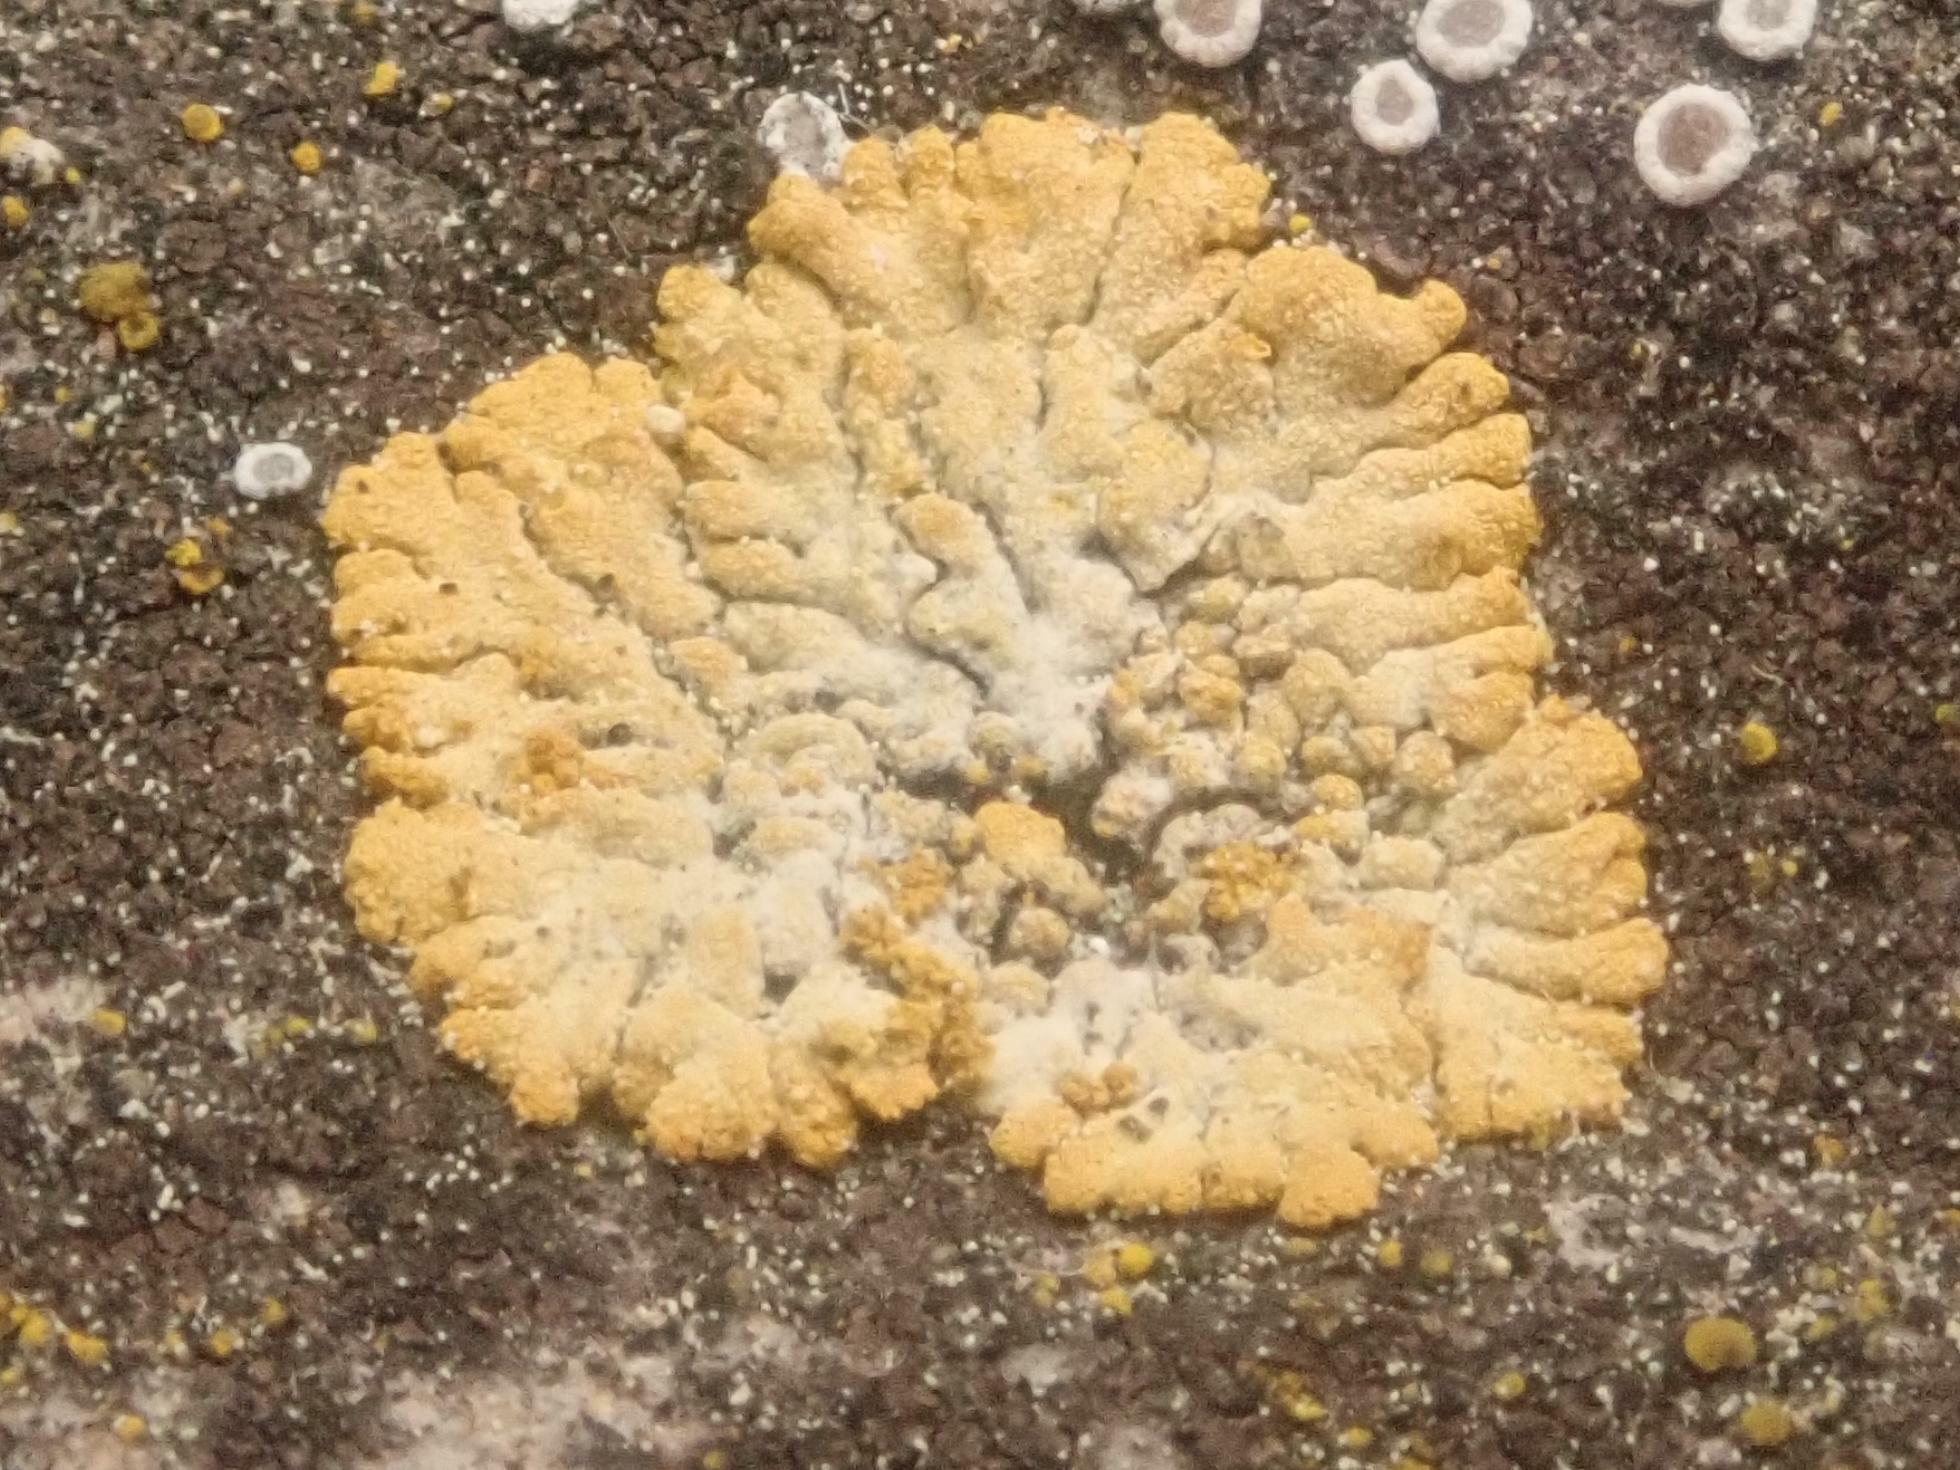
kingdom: Fungi
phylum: Ascomycota
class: Lecanoromycetes
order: Teloschistales
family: Teloschistaceae
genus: Calogaya
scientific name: Calogaya decipiens
